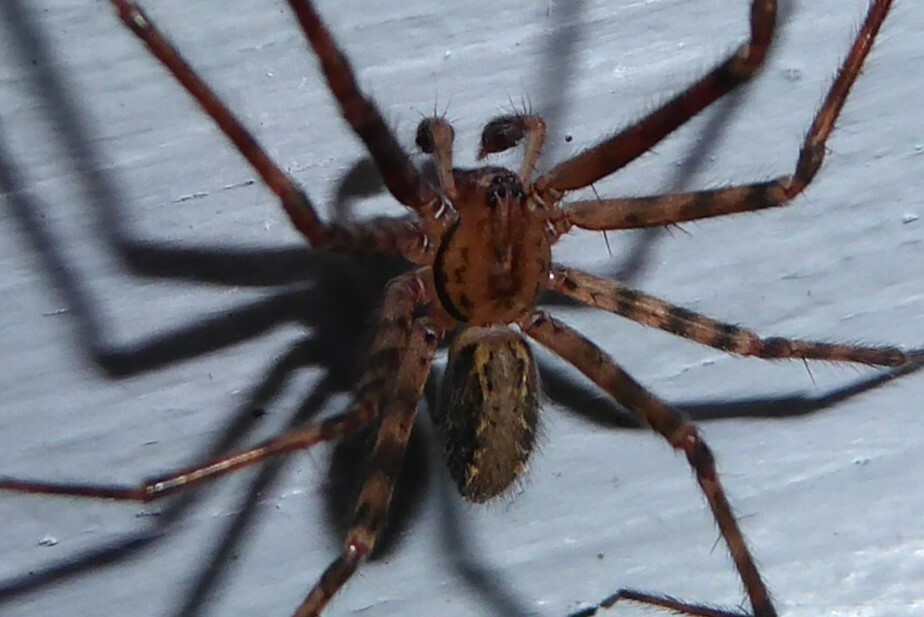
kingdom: Animalia
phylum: Arthropoda
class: Arachnida
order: Araneae
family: Stiphidiidae
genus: Stiphidion
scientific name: Stiphidion facetum
